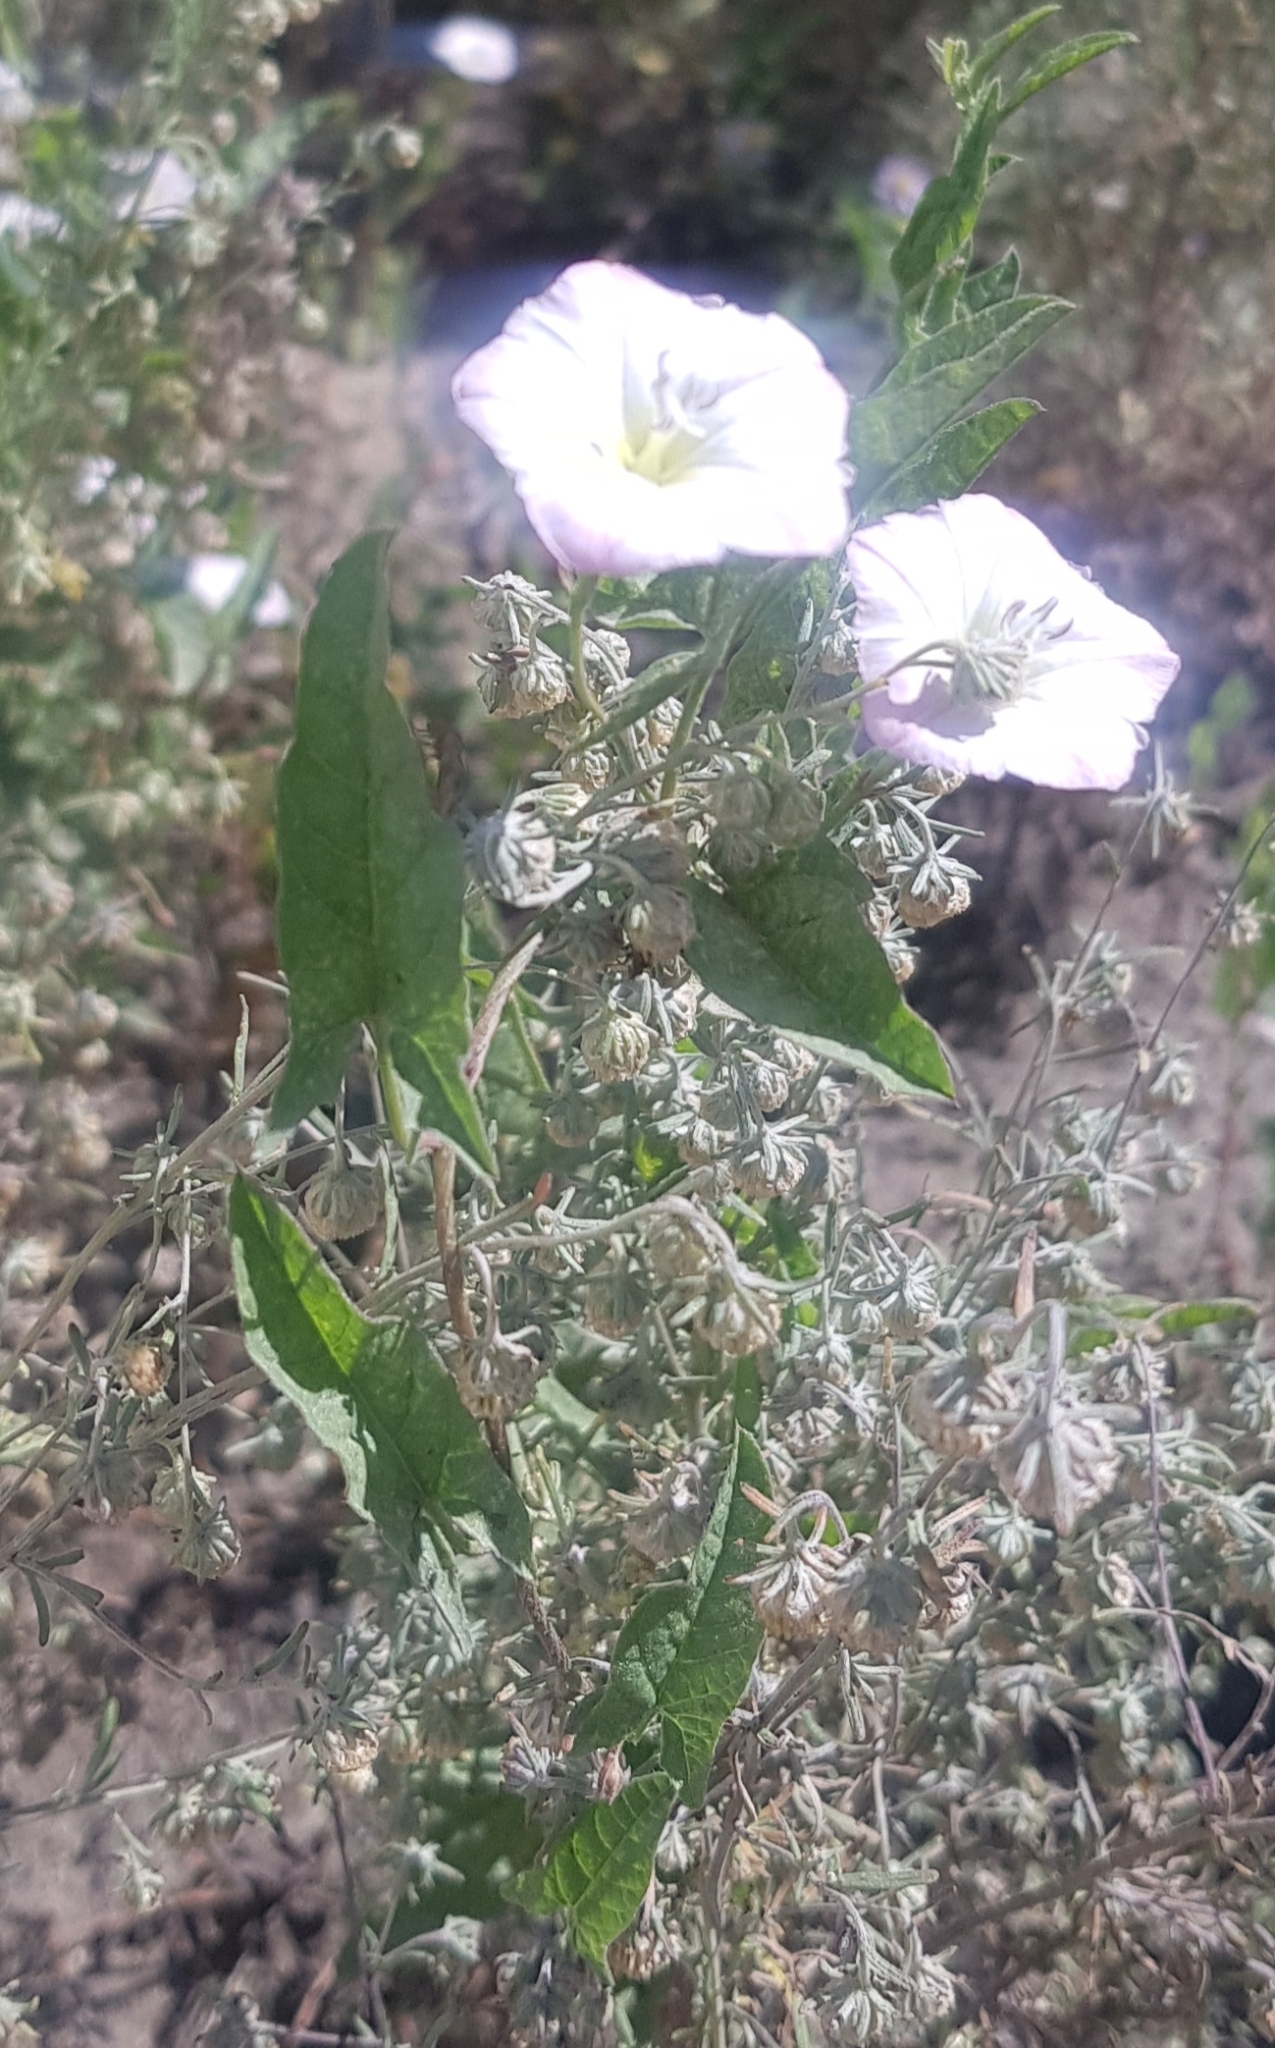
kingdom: Plantae
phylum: Tracheophyta
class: Magnoliopsida
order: Solanales
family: Convolvulaceae
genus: Convolvulus
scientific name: Convolvulus arvensis
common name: Field bindweed
